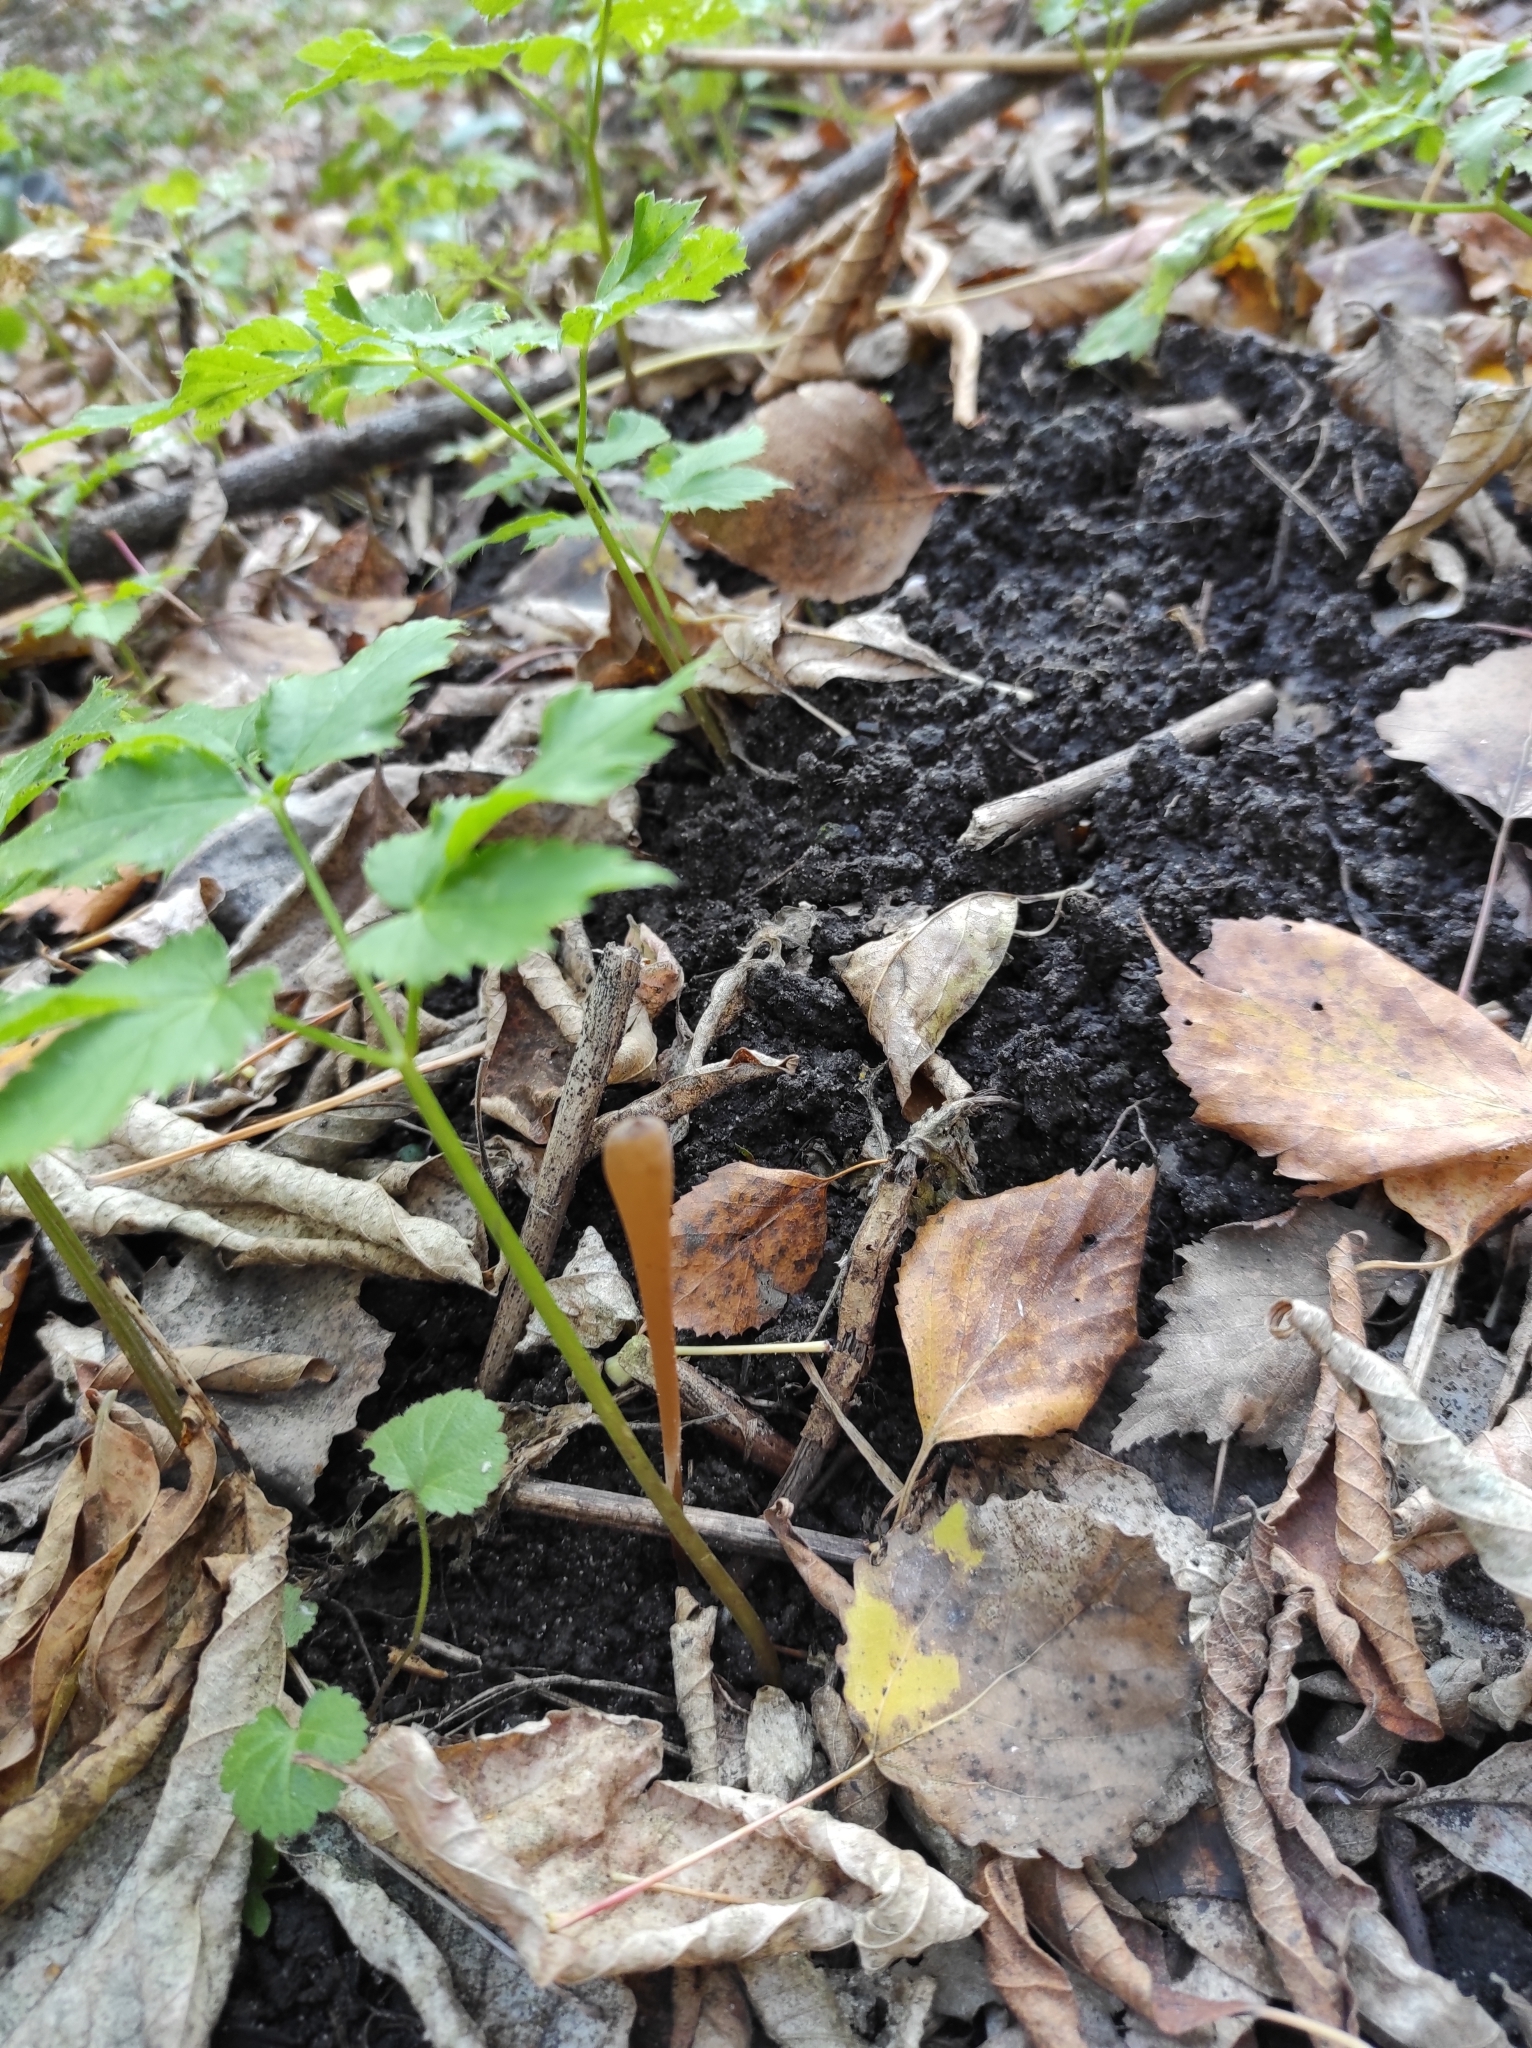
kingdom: Fungi
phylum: Basidiomycota
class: Agaricomycetes
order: Agaricales
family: Typhulaceae
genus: Typhula
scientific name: Typhula fistulosa
